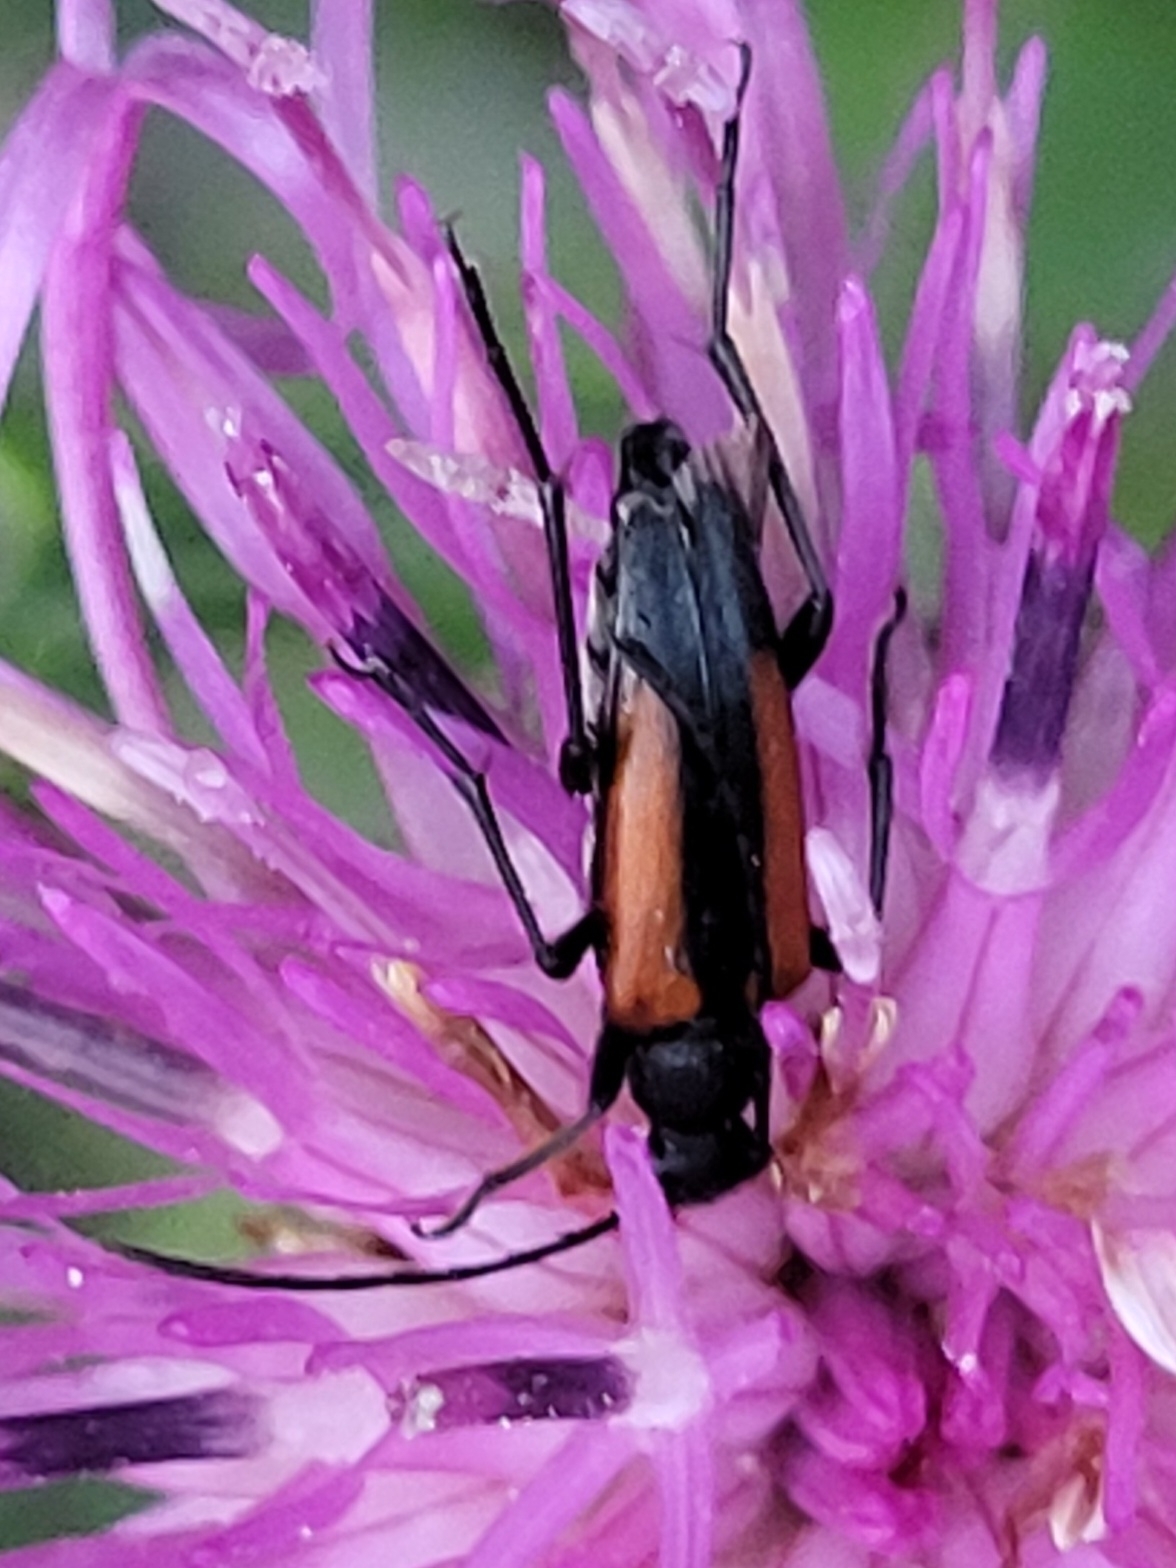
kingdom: Animalia
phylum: Arthropoda
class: Insecta
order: Coleoptera
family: Cerambycidae
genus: Stenurella
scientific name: Stenurella melanura
